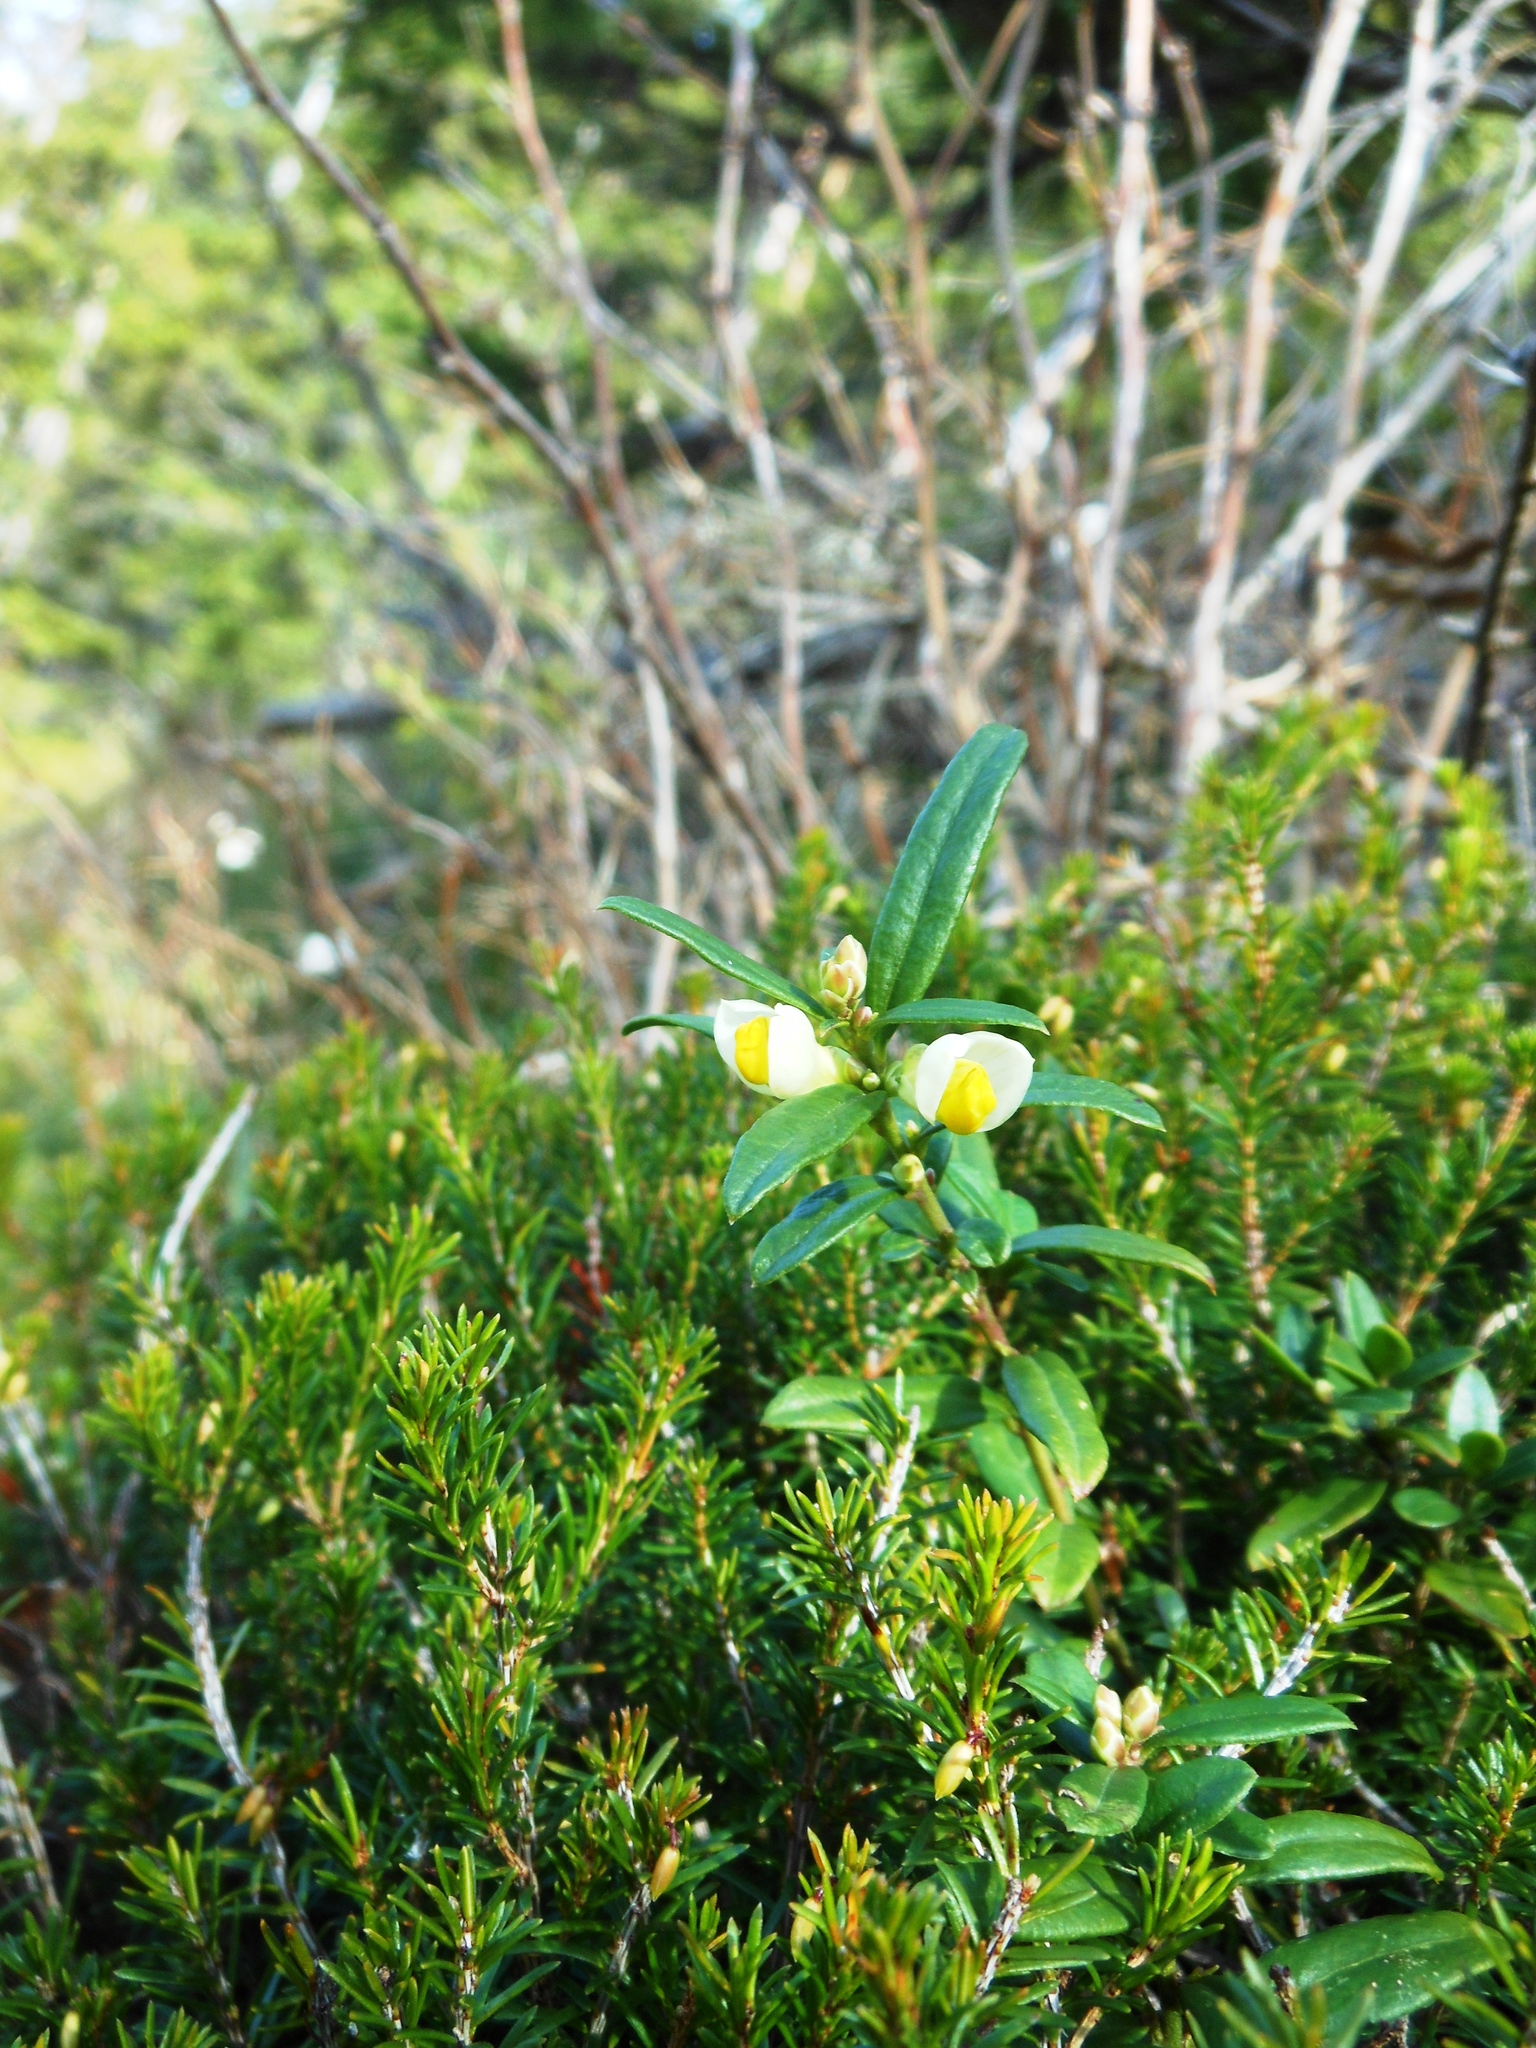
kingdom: Plantae
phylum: Tracheophyta
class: Magnoliopsida
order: Fabales
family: Polygalaceae
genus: Polygaloides
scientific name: Polygaloides chamaebuxus
